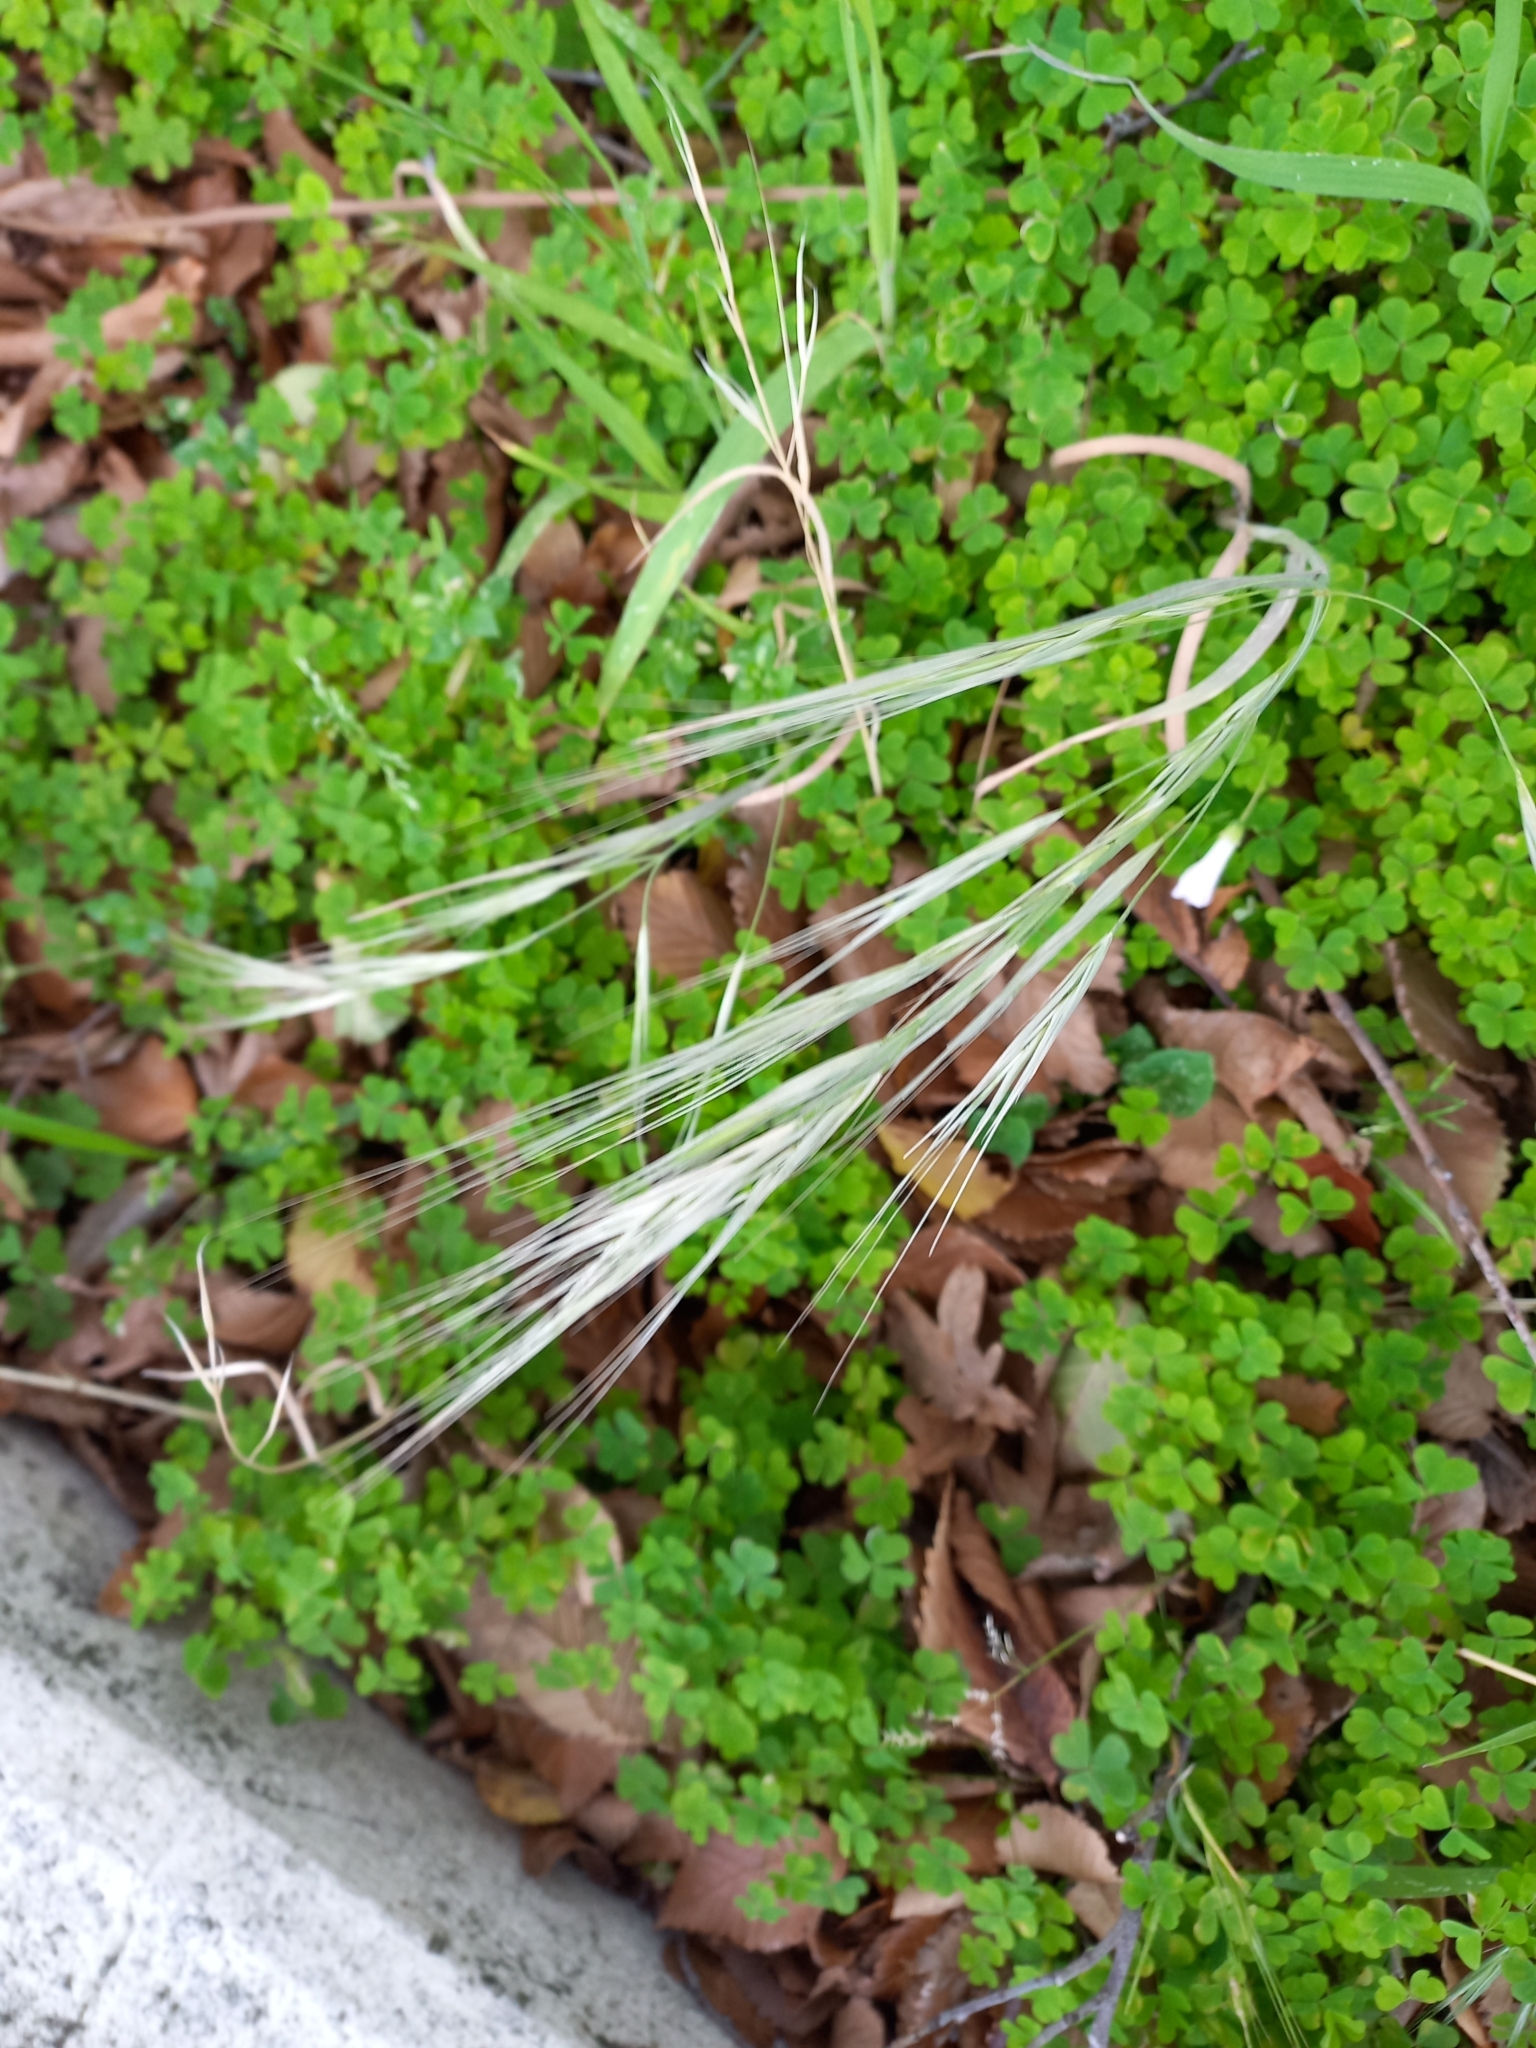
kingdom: Plantae
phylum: Tracheophyta
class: Liliopsida
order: Poales
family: Poaceae
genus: Bromus
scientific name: Bromus diandrus
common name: Ripgut brome
